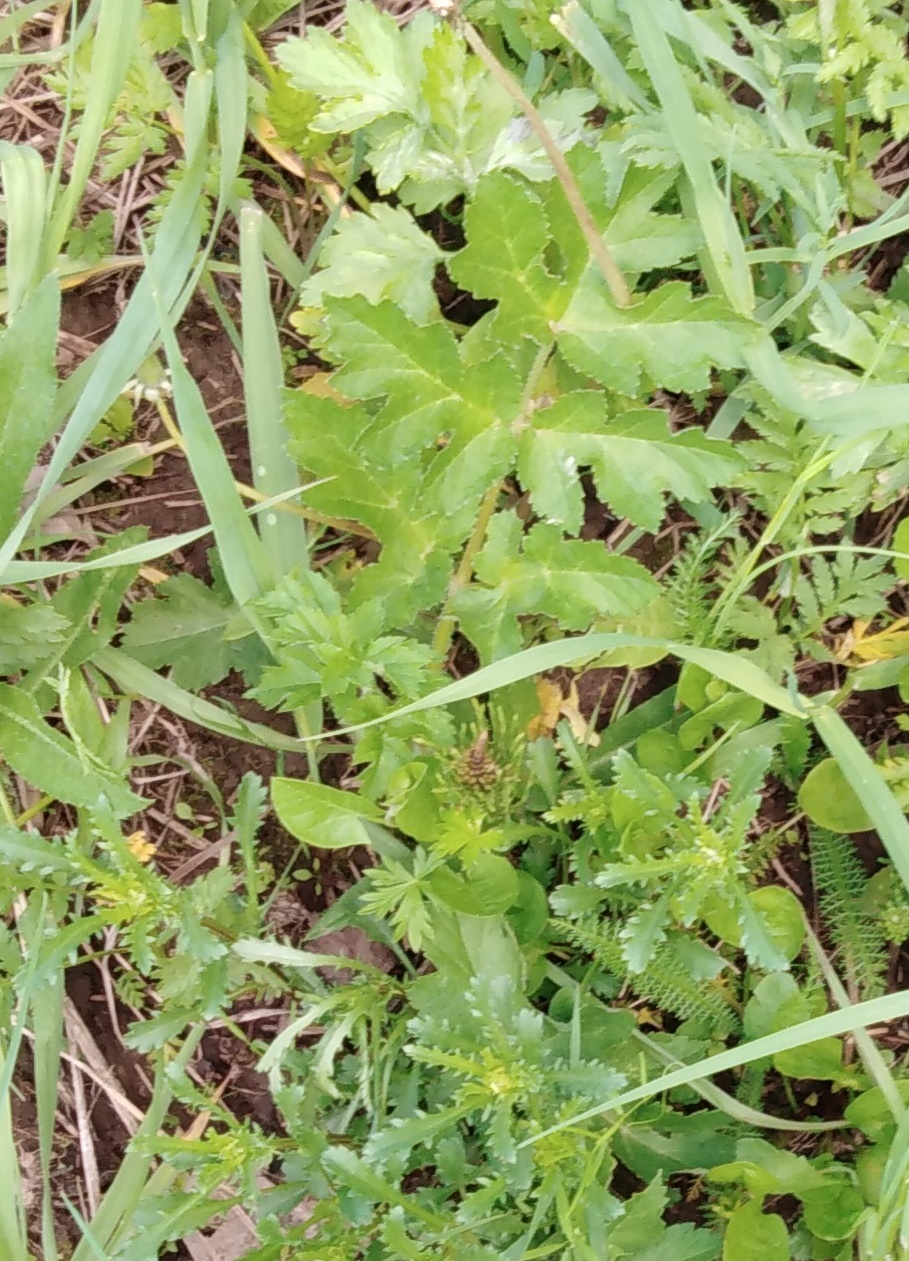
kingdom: Plantae
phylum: Tracheophyta
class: Magnoliopsida
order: Apiales
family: Apiaceae
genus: Heracleum
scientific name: Heracleum sphondylium
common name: Hogweed
